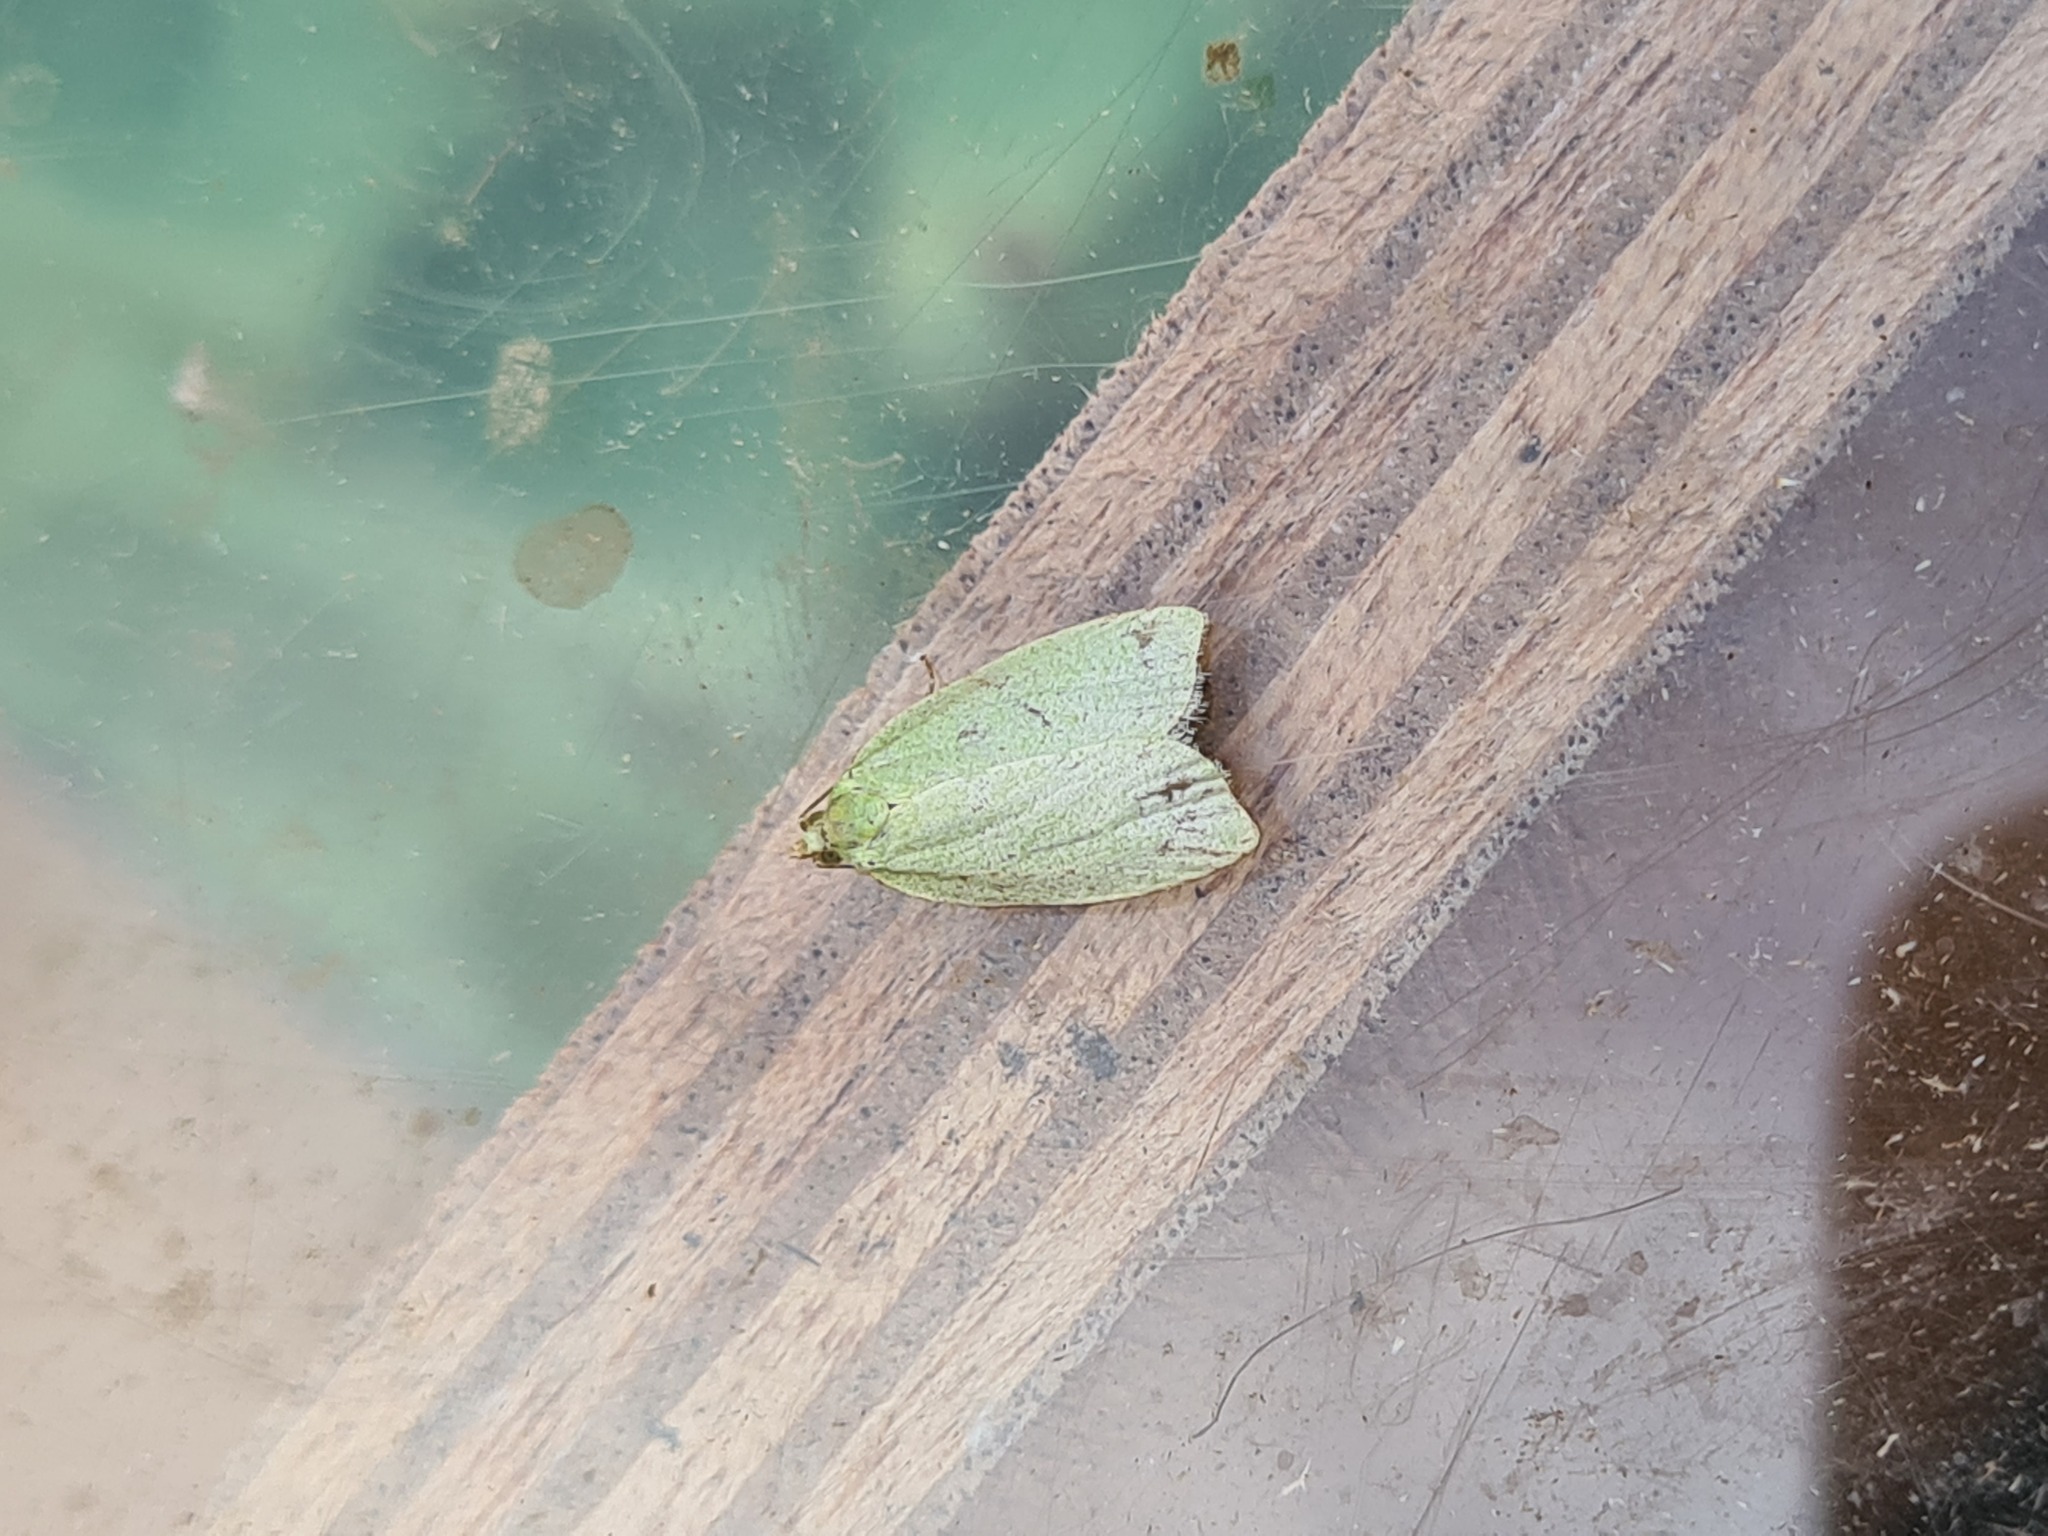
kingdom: Animalia
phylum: Arthropoda
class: Insecta
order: Lepidoptera
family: Tortricidae
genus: Tortrix
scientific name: Tortrix viridana
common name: Green oak tortrix
